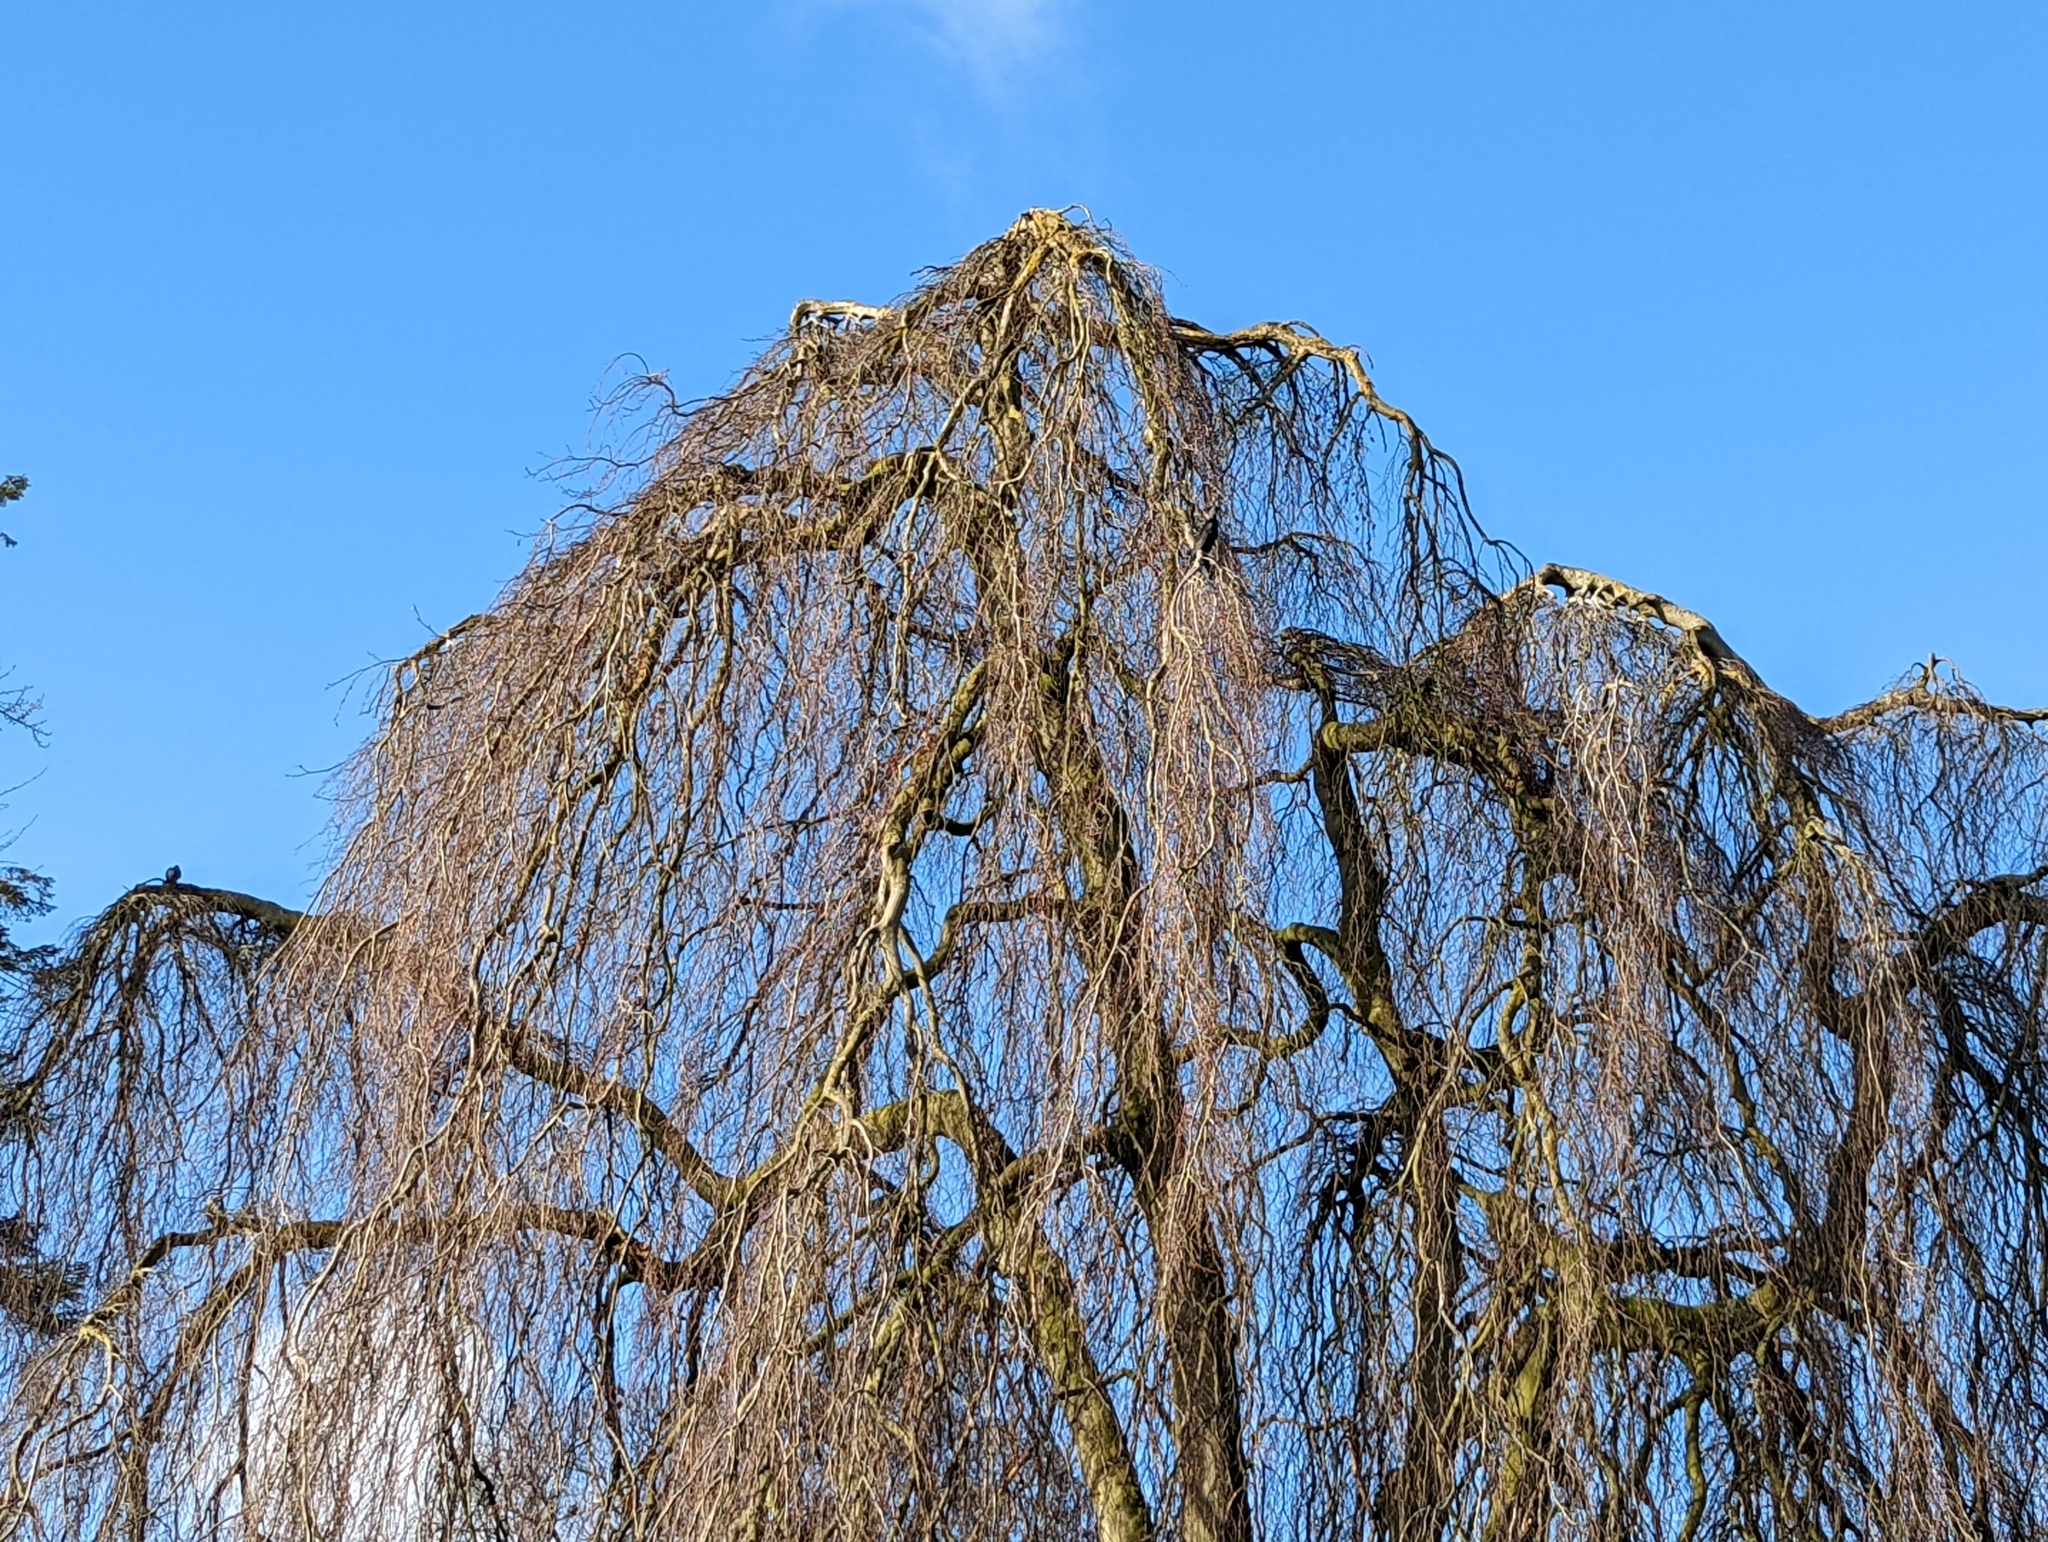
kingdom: Animalia
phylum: Chordata
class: Aves
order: Suliformes
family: Phalacrocoracidae
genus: Phalacrocorax
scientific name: Phalacrocorax carbo
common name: Great cormorant
